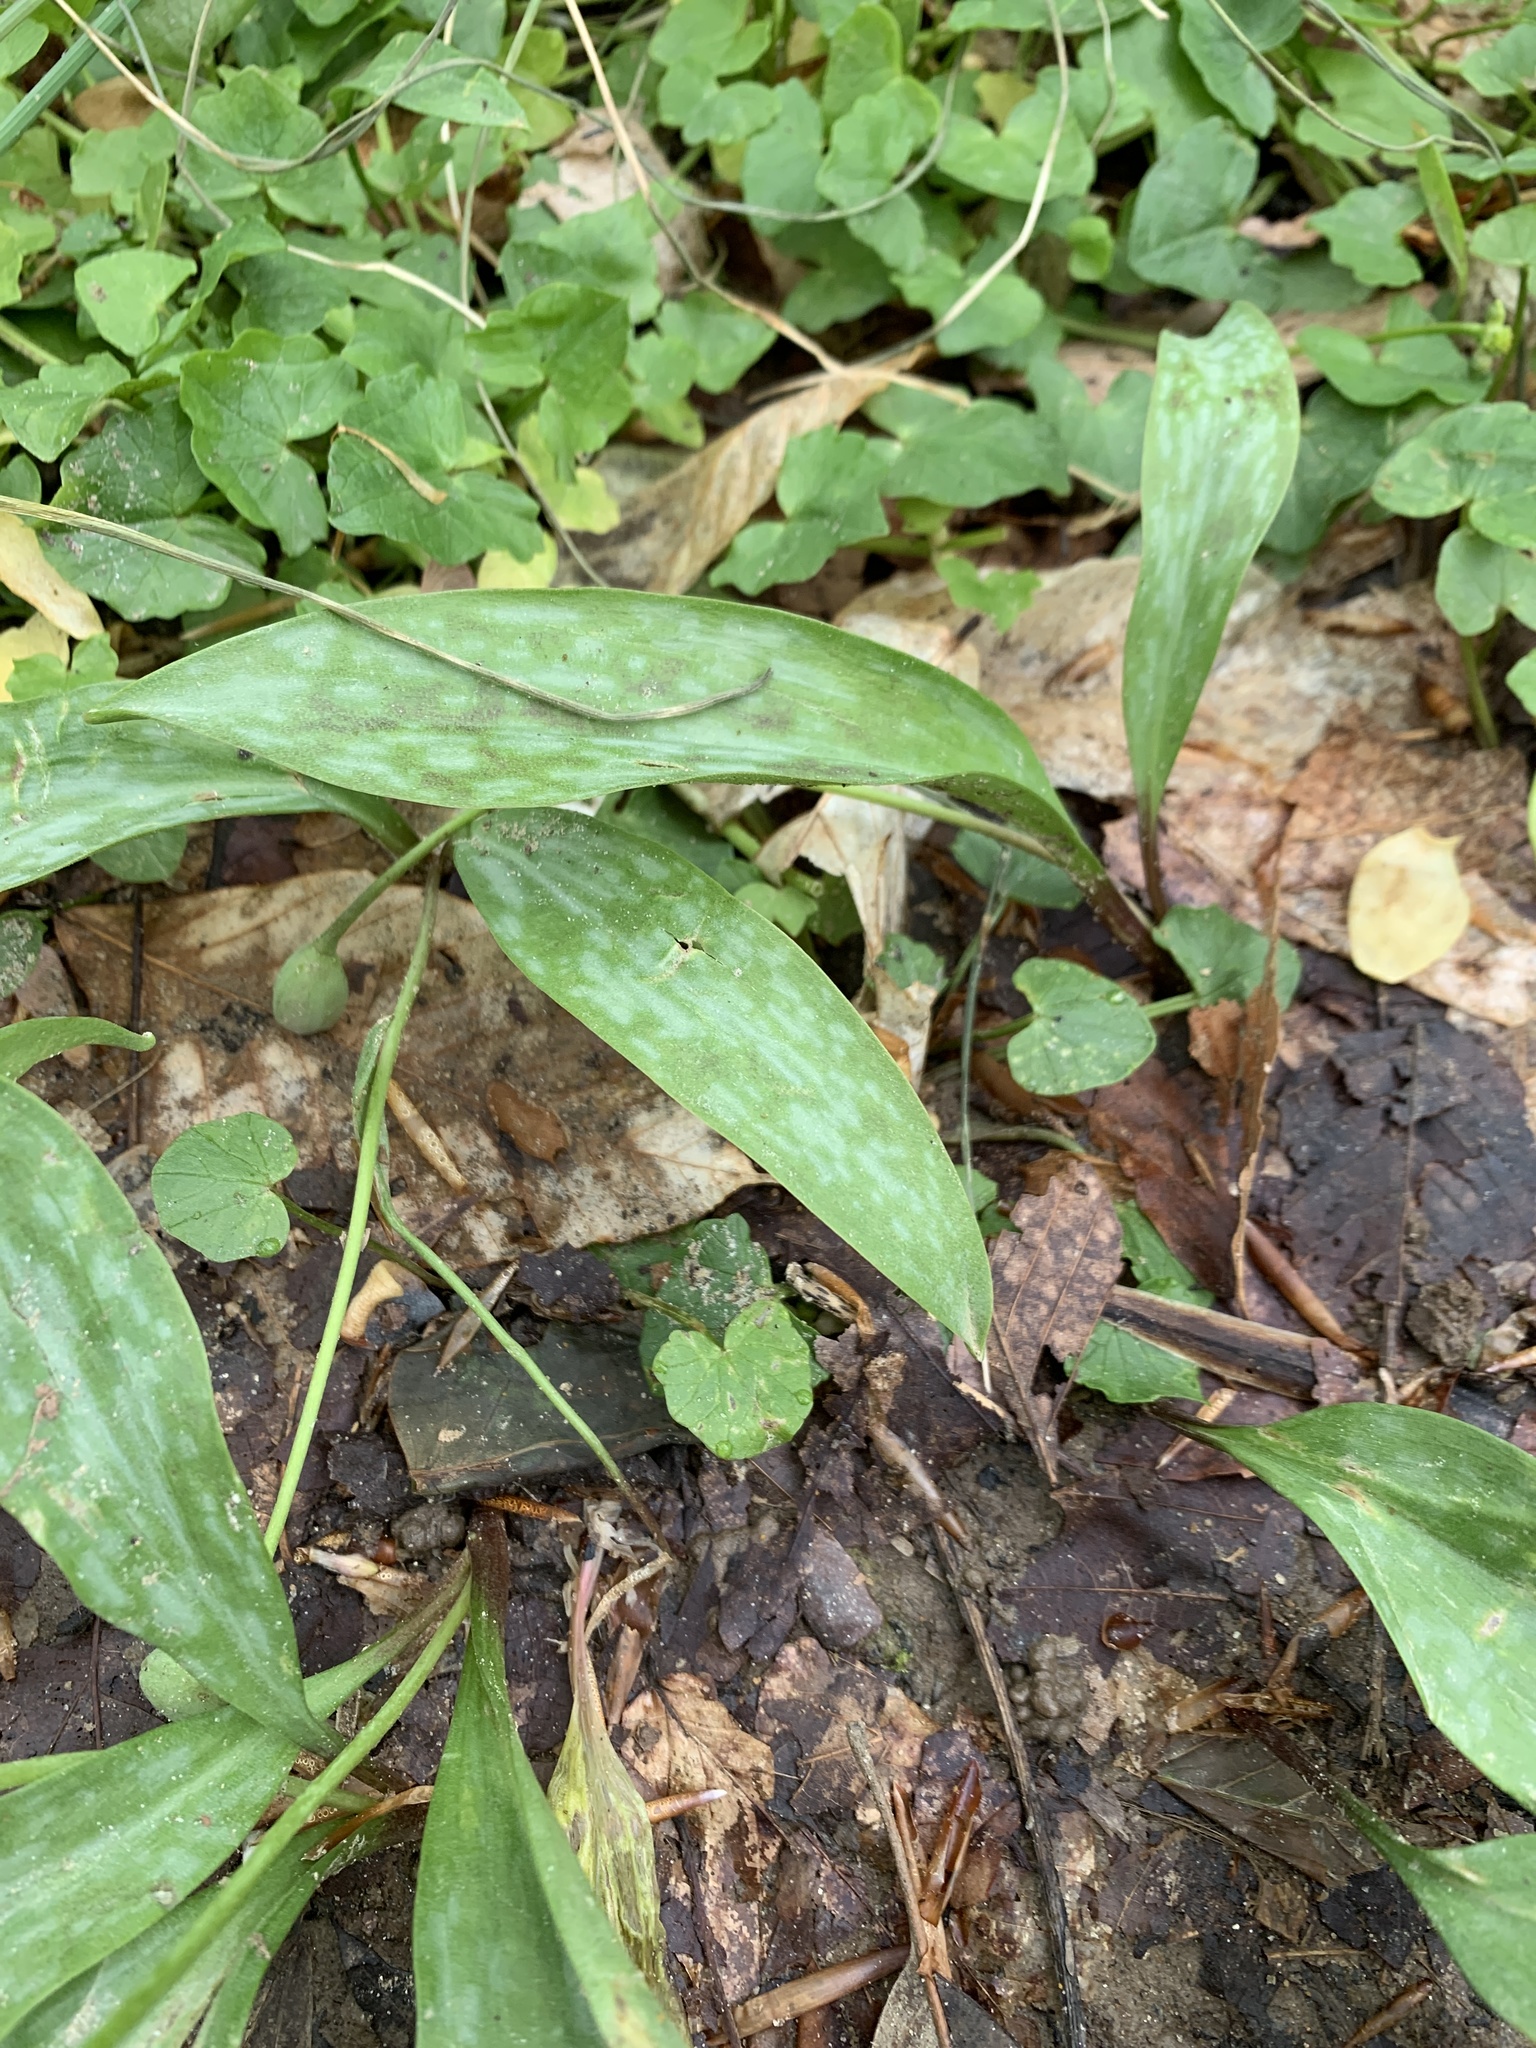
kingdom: Plantae
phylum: Tracheophyta
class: Liliopsida
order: Liliales
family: Liliaceae
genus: Erythronium
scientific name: Erythronium americanum
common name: Yellow adder's-tongue
